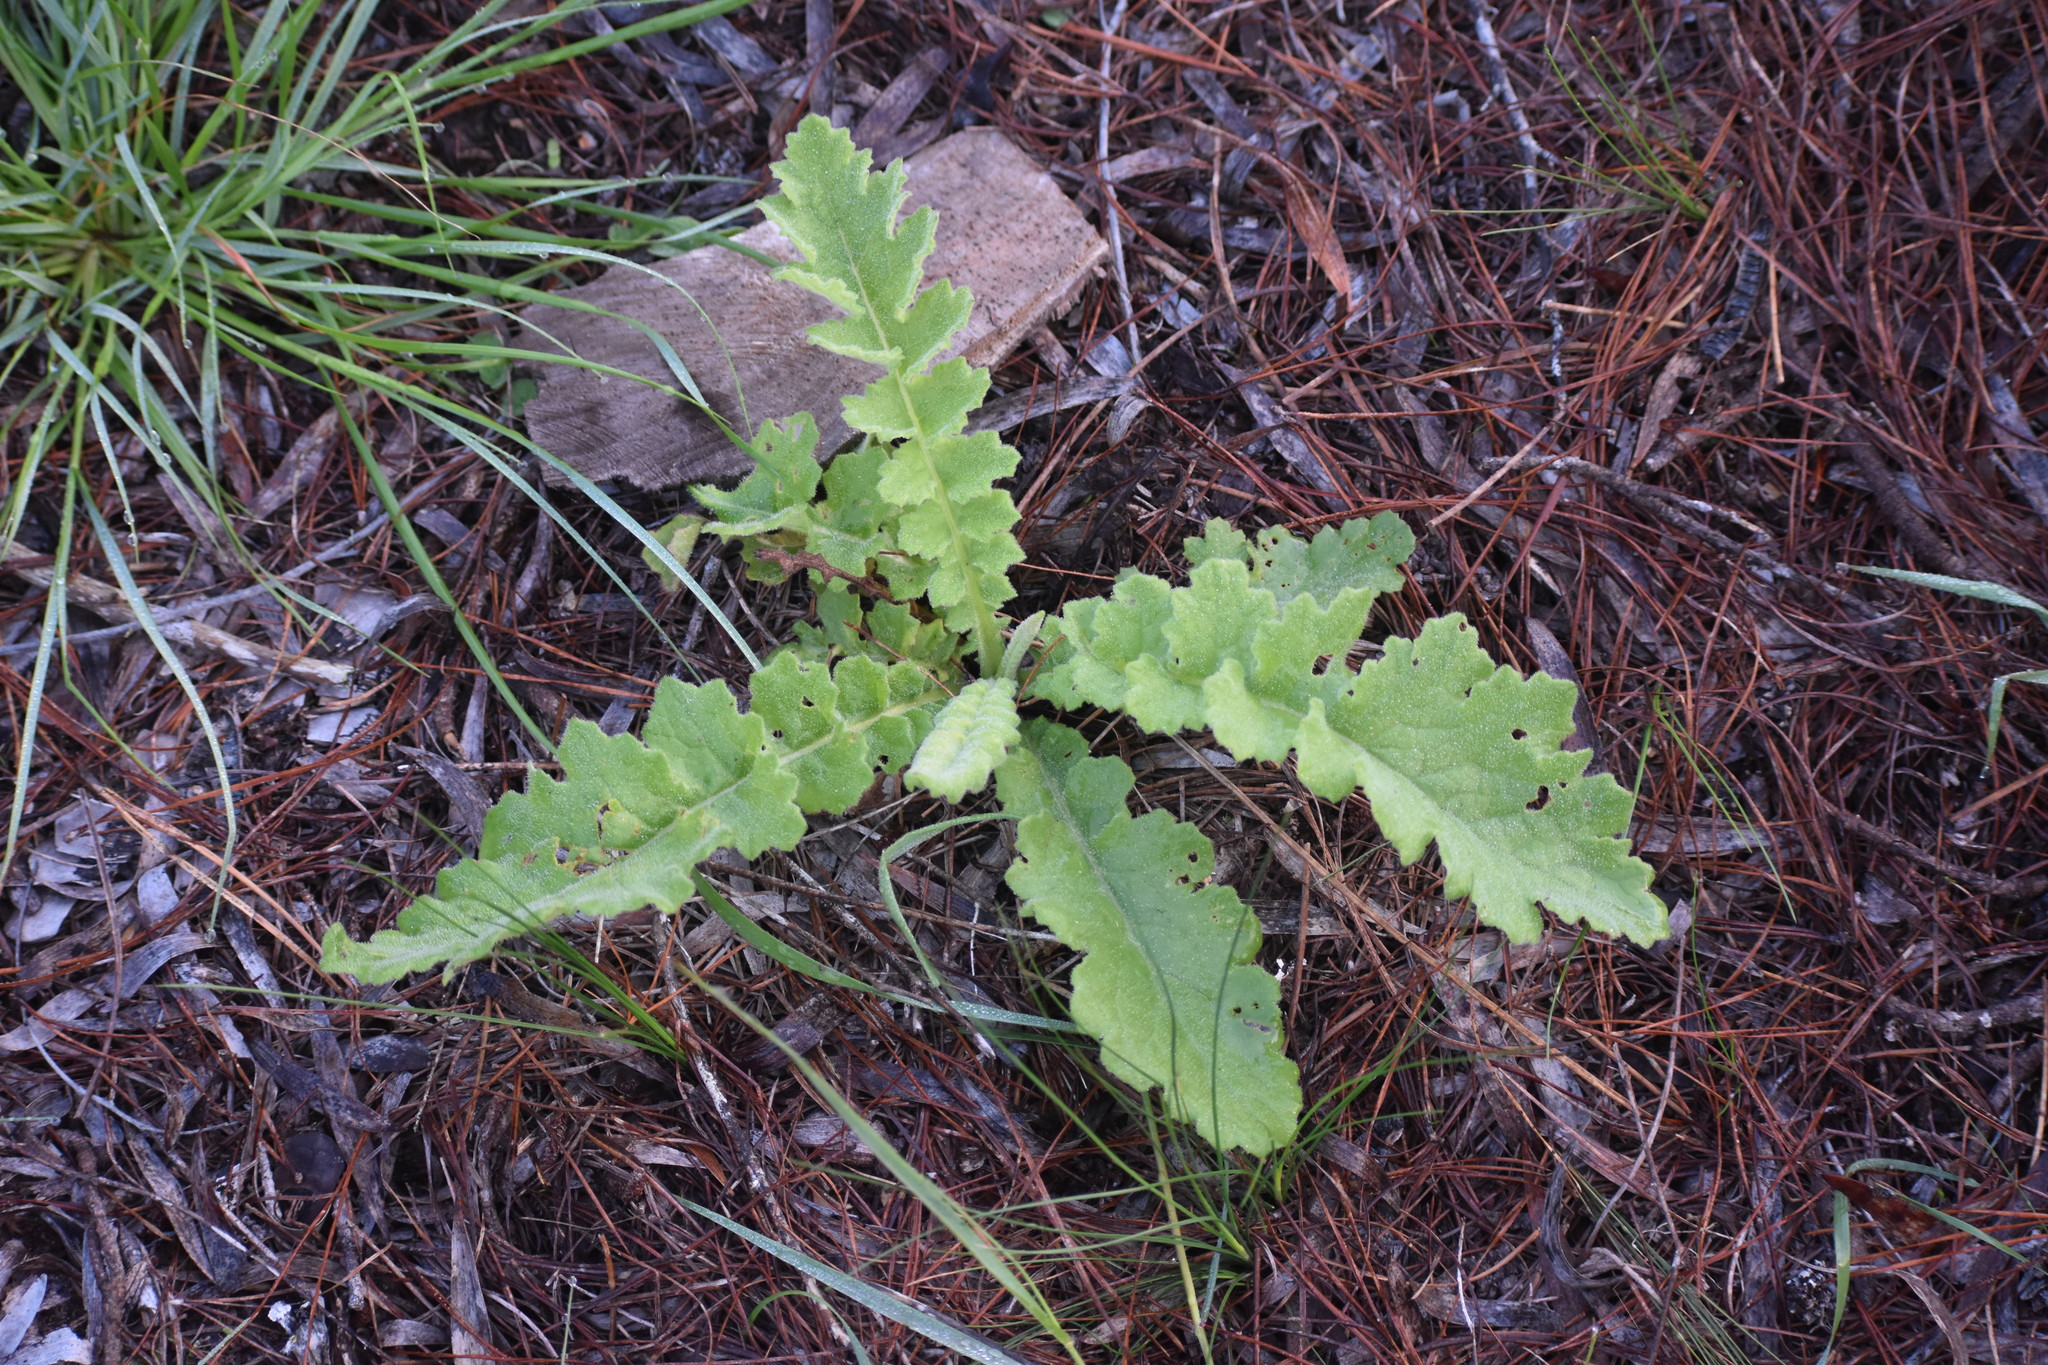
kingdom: Plantae
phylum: Tracheophyta
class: Magnoliopsida
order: Asterales
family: Asteraceae
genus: Arctotheca
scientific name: Arctotheca prostrata
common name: Capeweed
